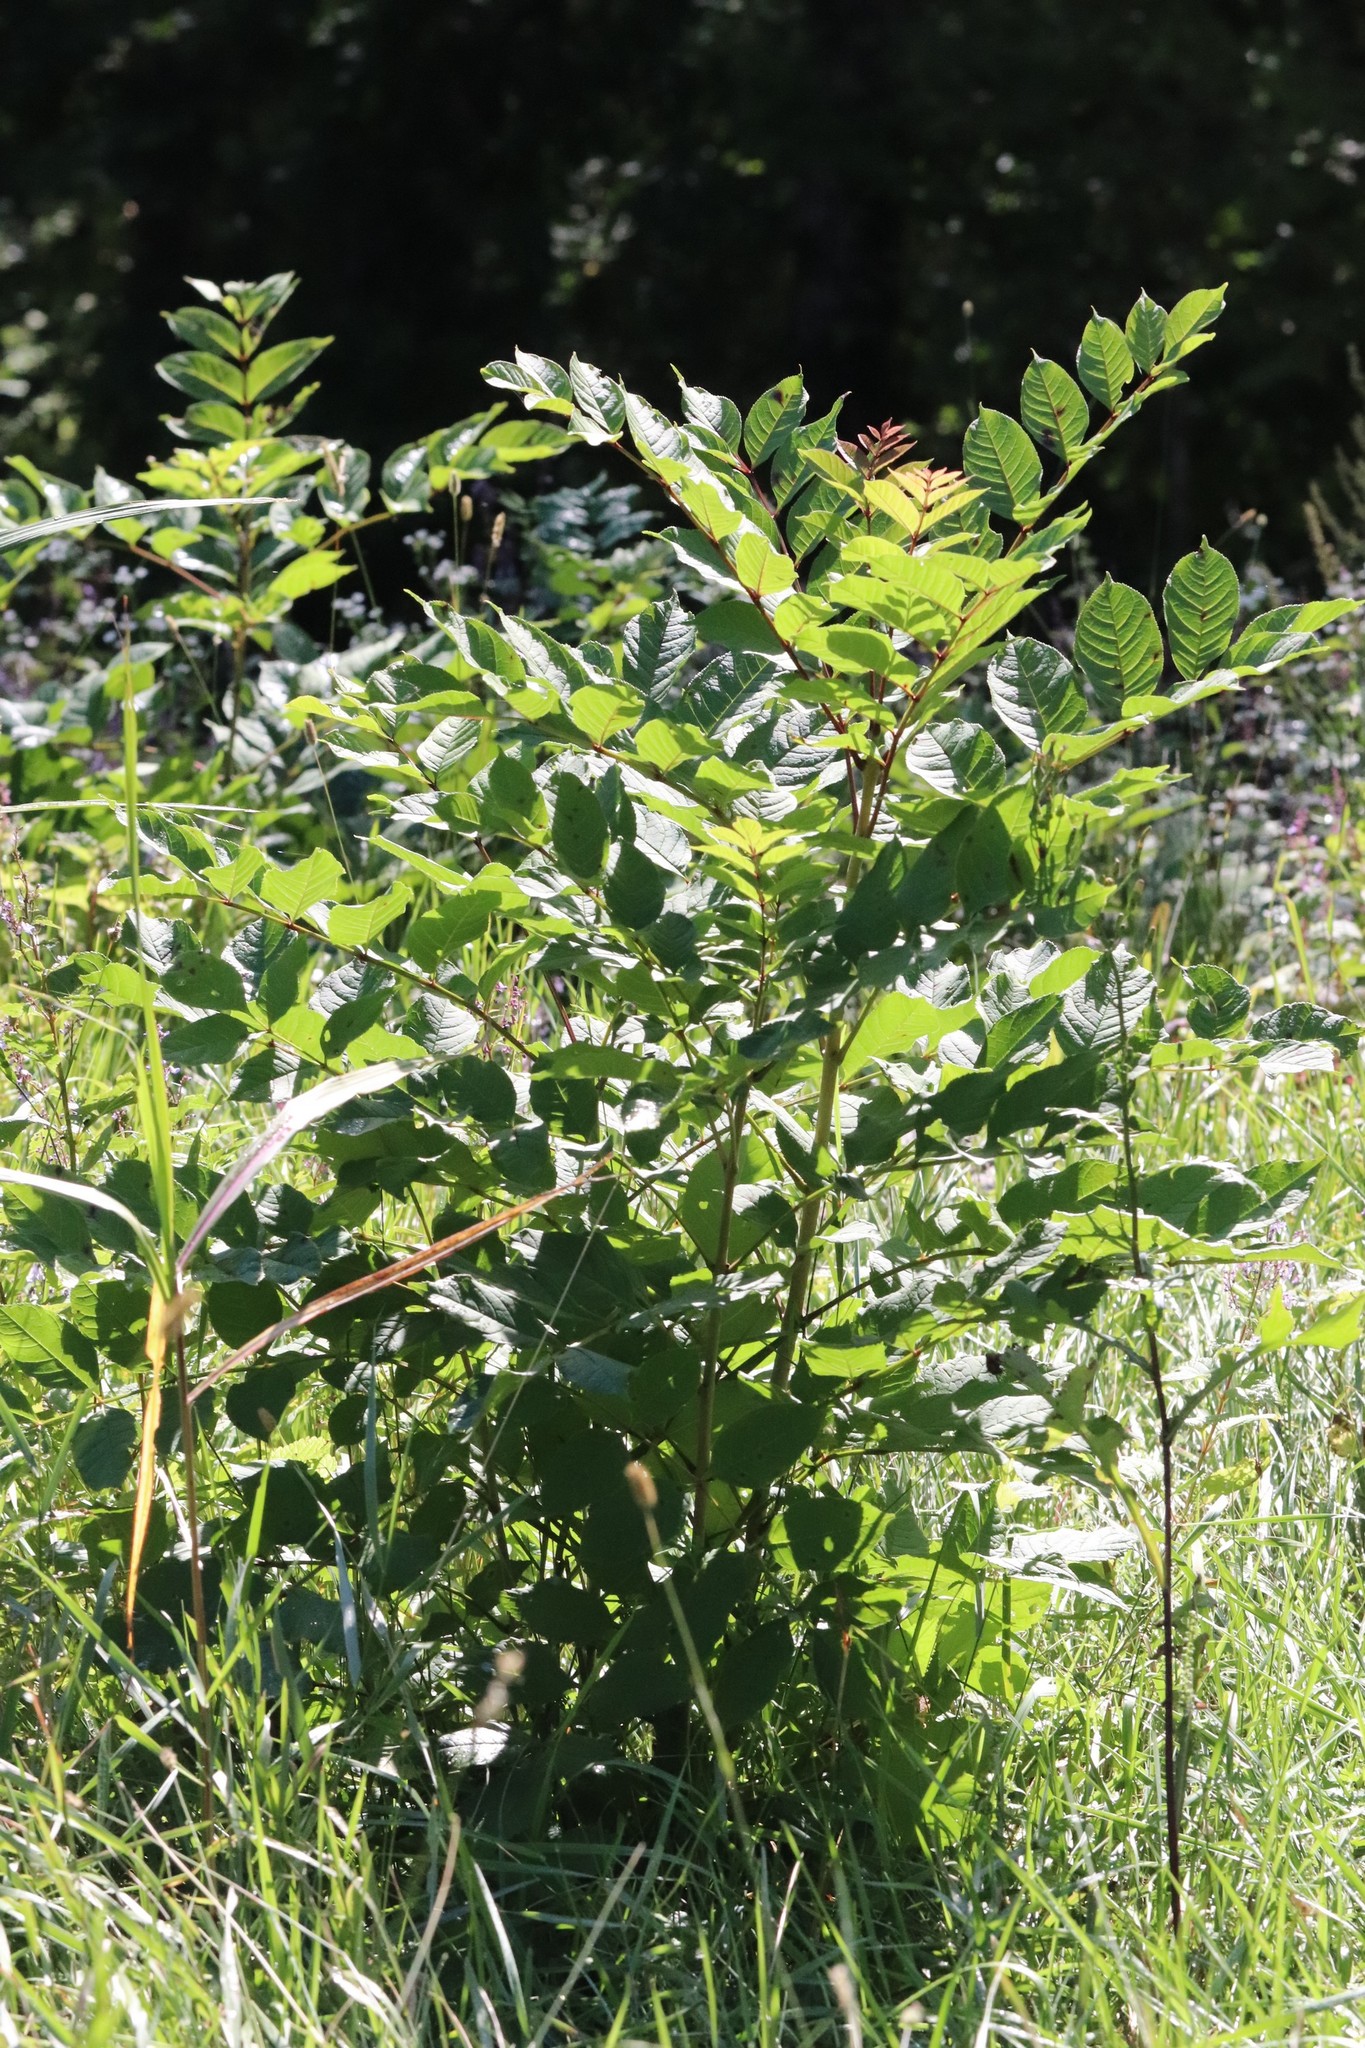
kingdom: Plantae
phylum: Tracheophyta
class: Magnoliopsida
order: Lamiales
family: Oleaceae
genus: Fraxinus
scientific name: Fraxinus mandshurica
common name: Manchurian ash
